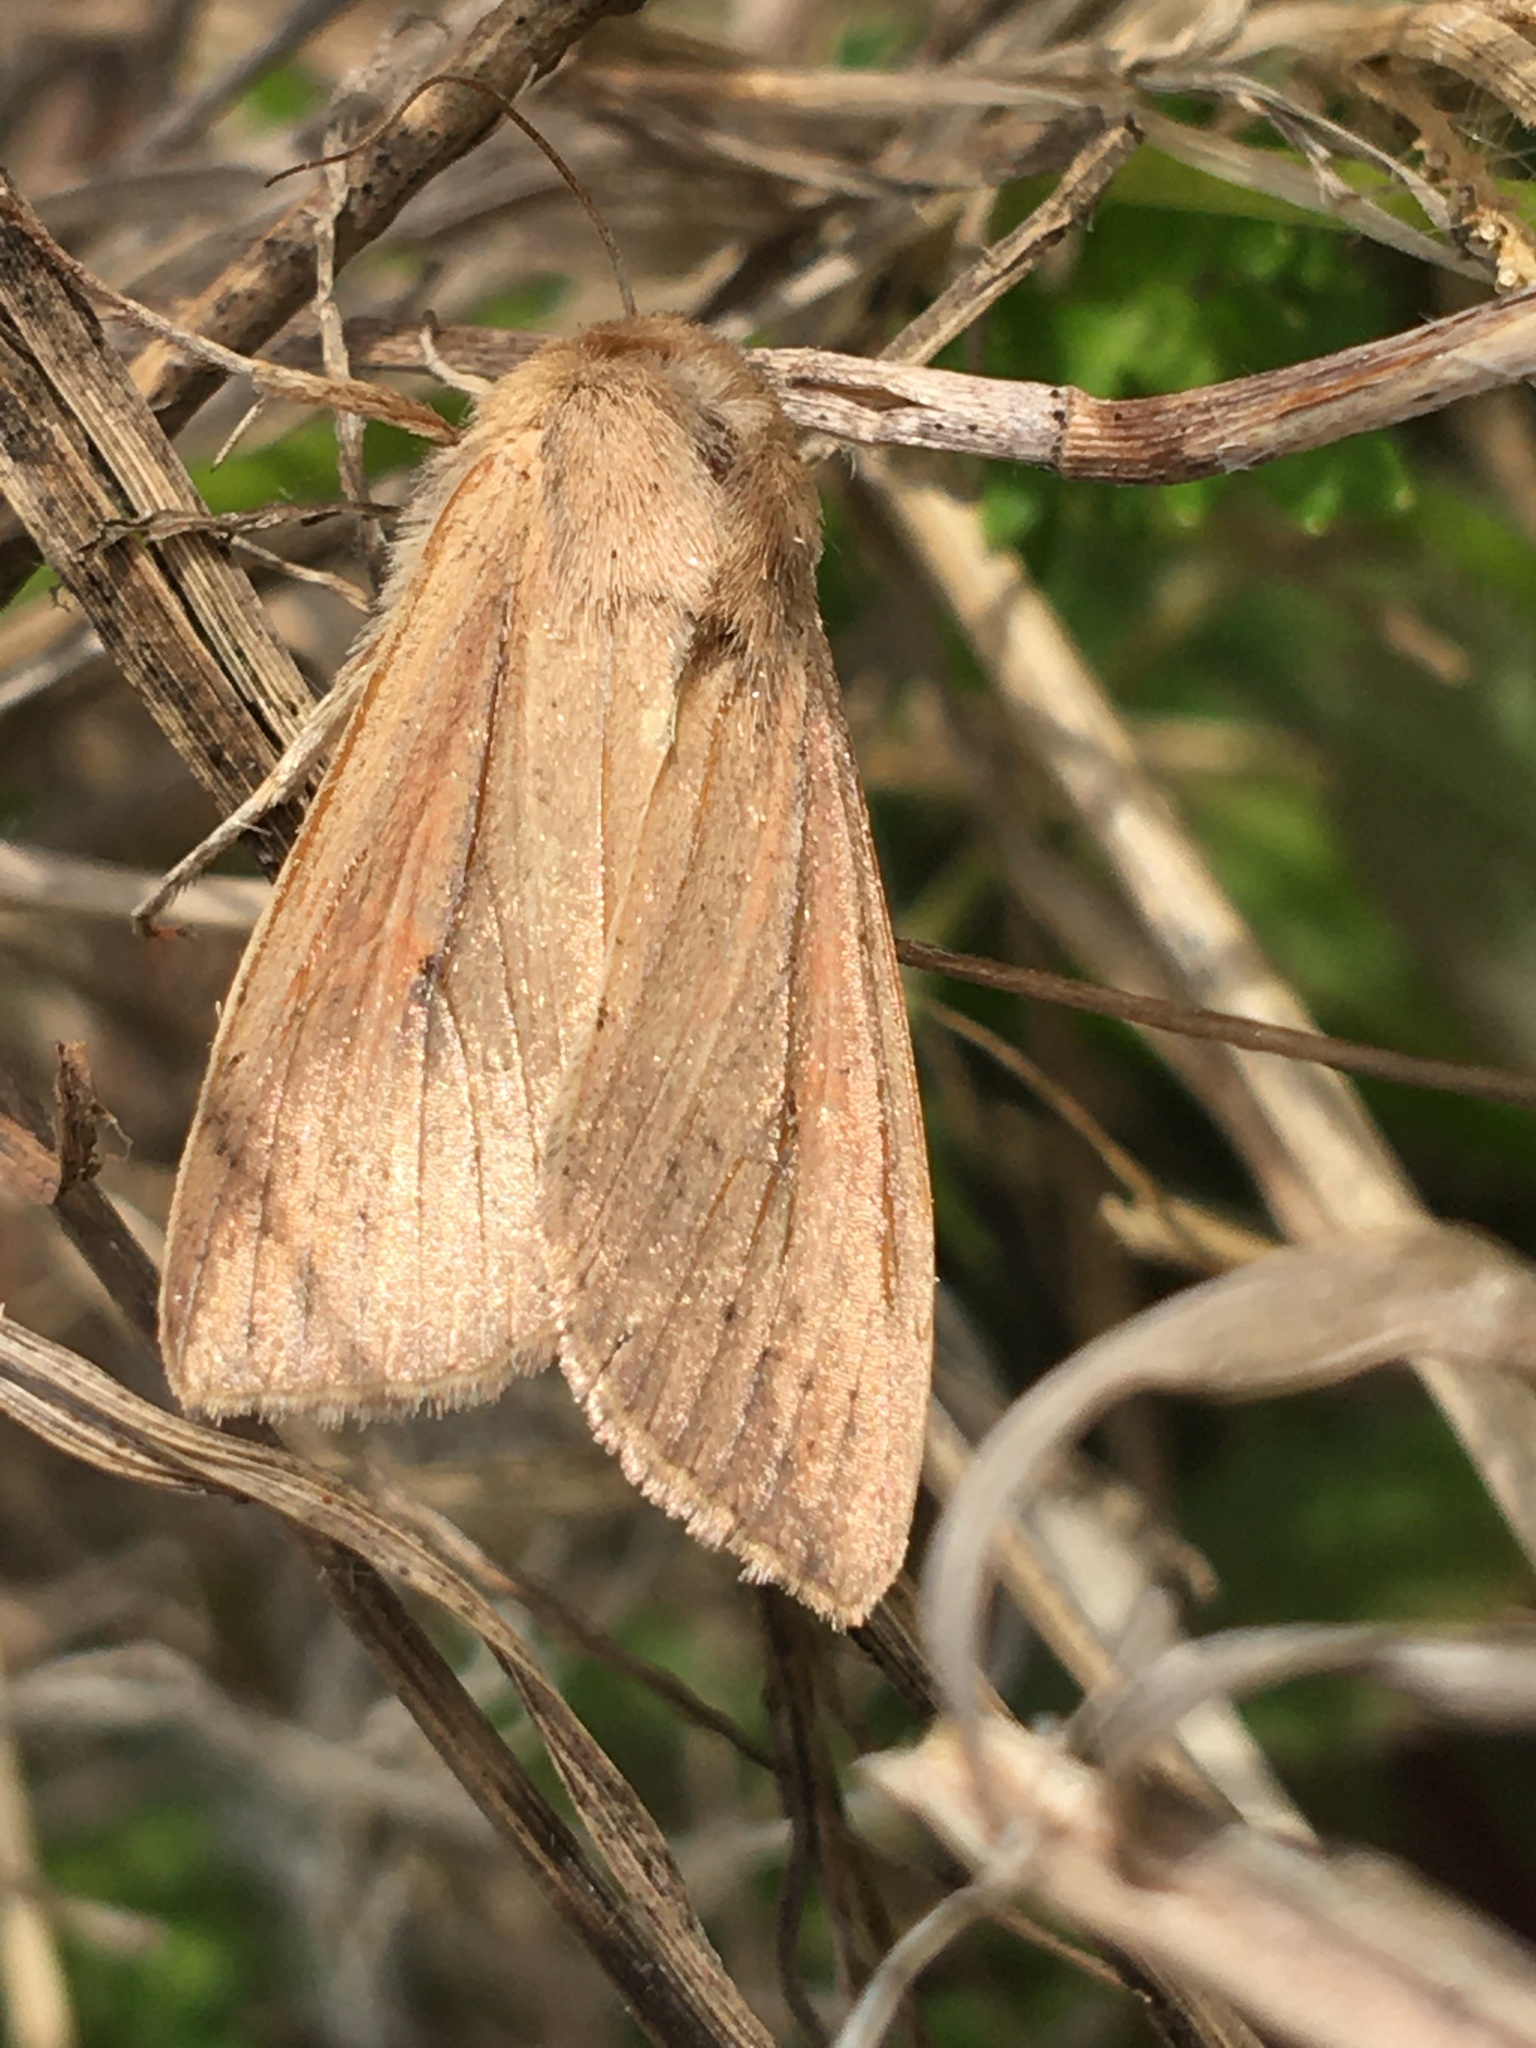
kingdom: Animalia
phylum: Arthropoda
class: Insecta
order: Lepidoptera
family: Noctuidae
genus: Mythimna
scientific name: Mythimna unipuncta
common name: White-speck
